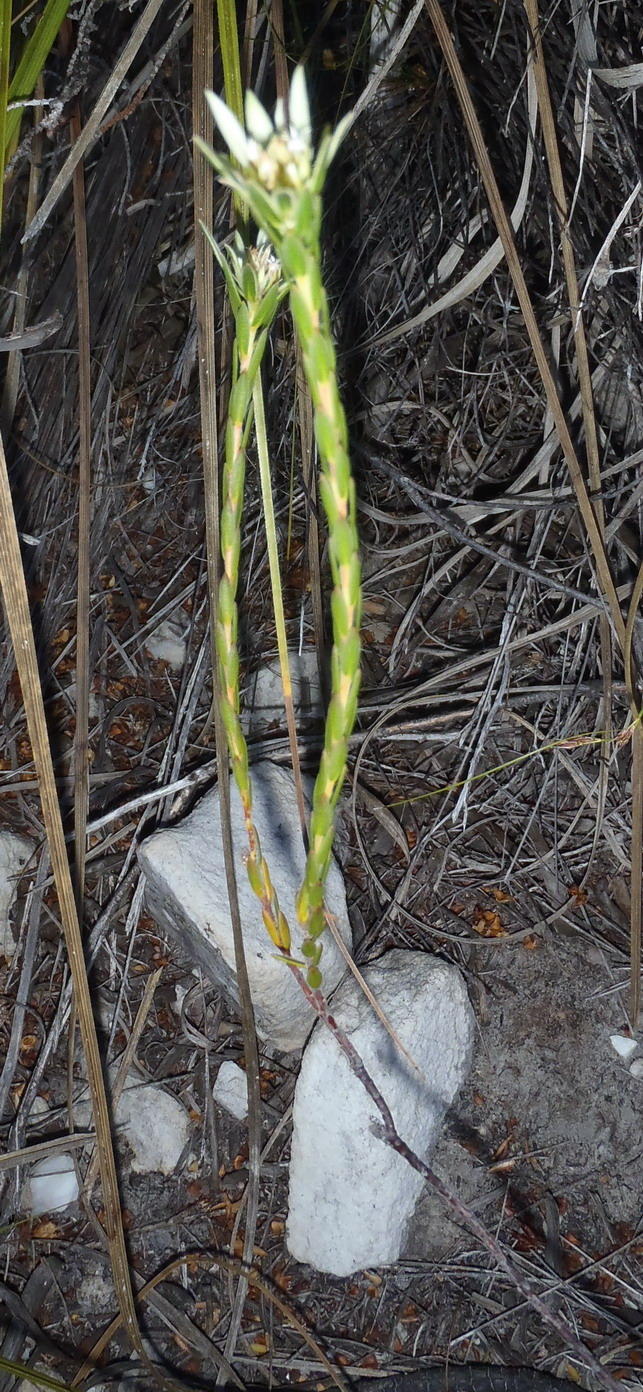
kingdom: Plantae
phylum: Tracheophyta
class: Magnoliopsida
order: Sapindales
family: Rutaceae
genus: Euchaetis
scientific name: Euchaetis longibracteata
